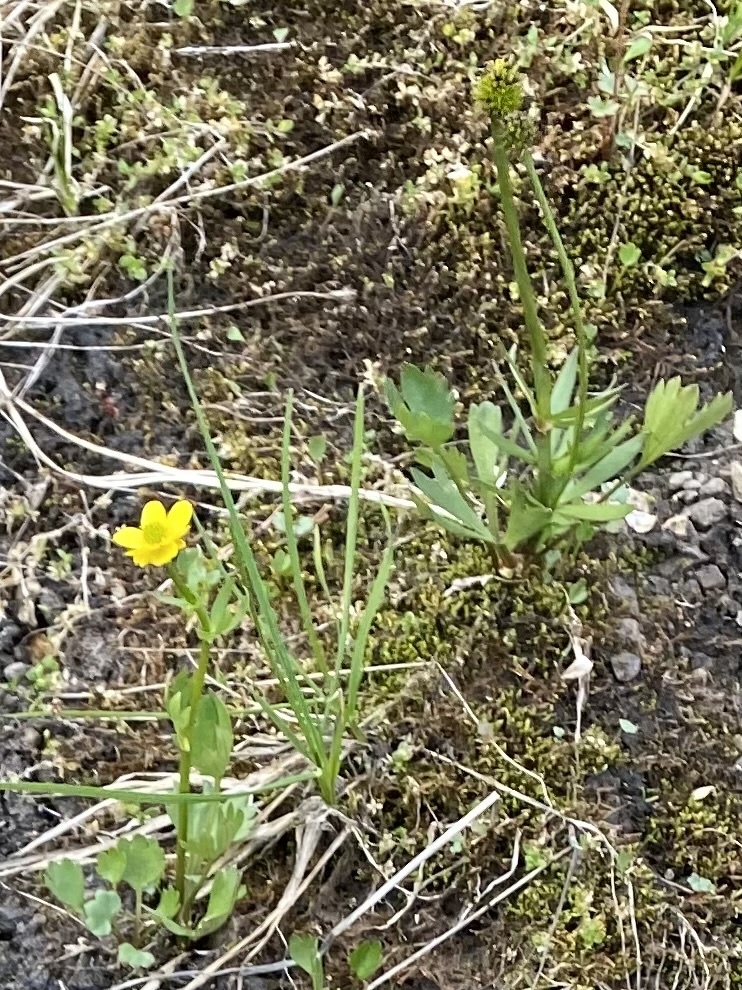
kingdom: Plantae
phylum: Tracheophyta
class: Magnoliopsida
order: Ranunculales
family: Ranunculaceae
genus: Ranunculus
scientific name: Ranunculus sulphureus
